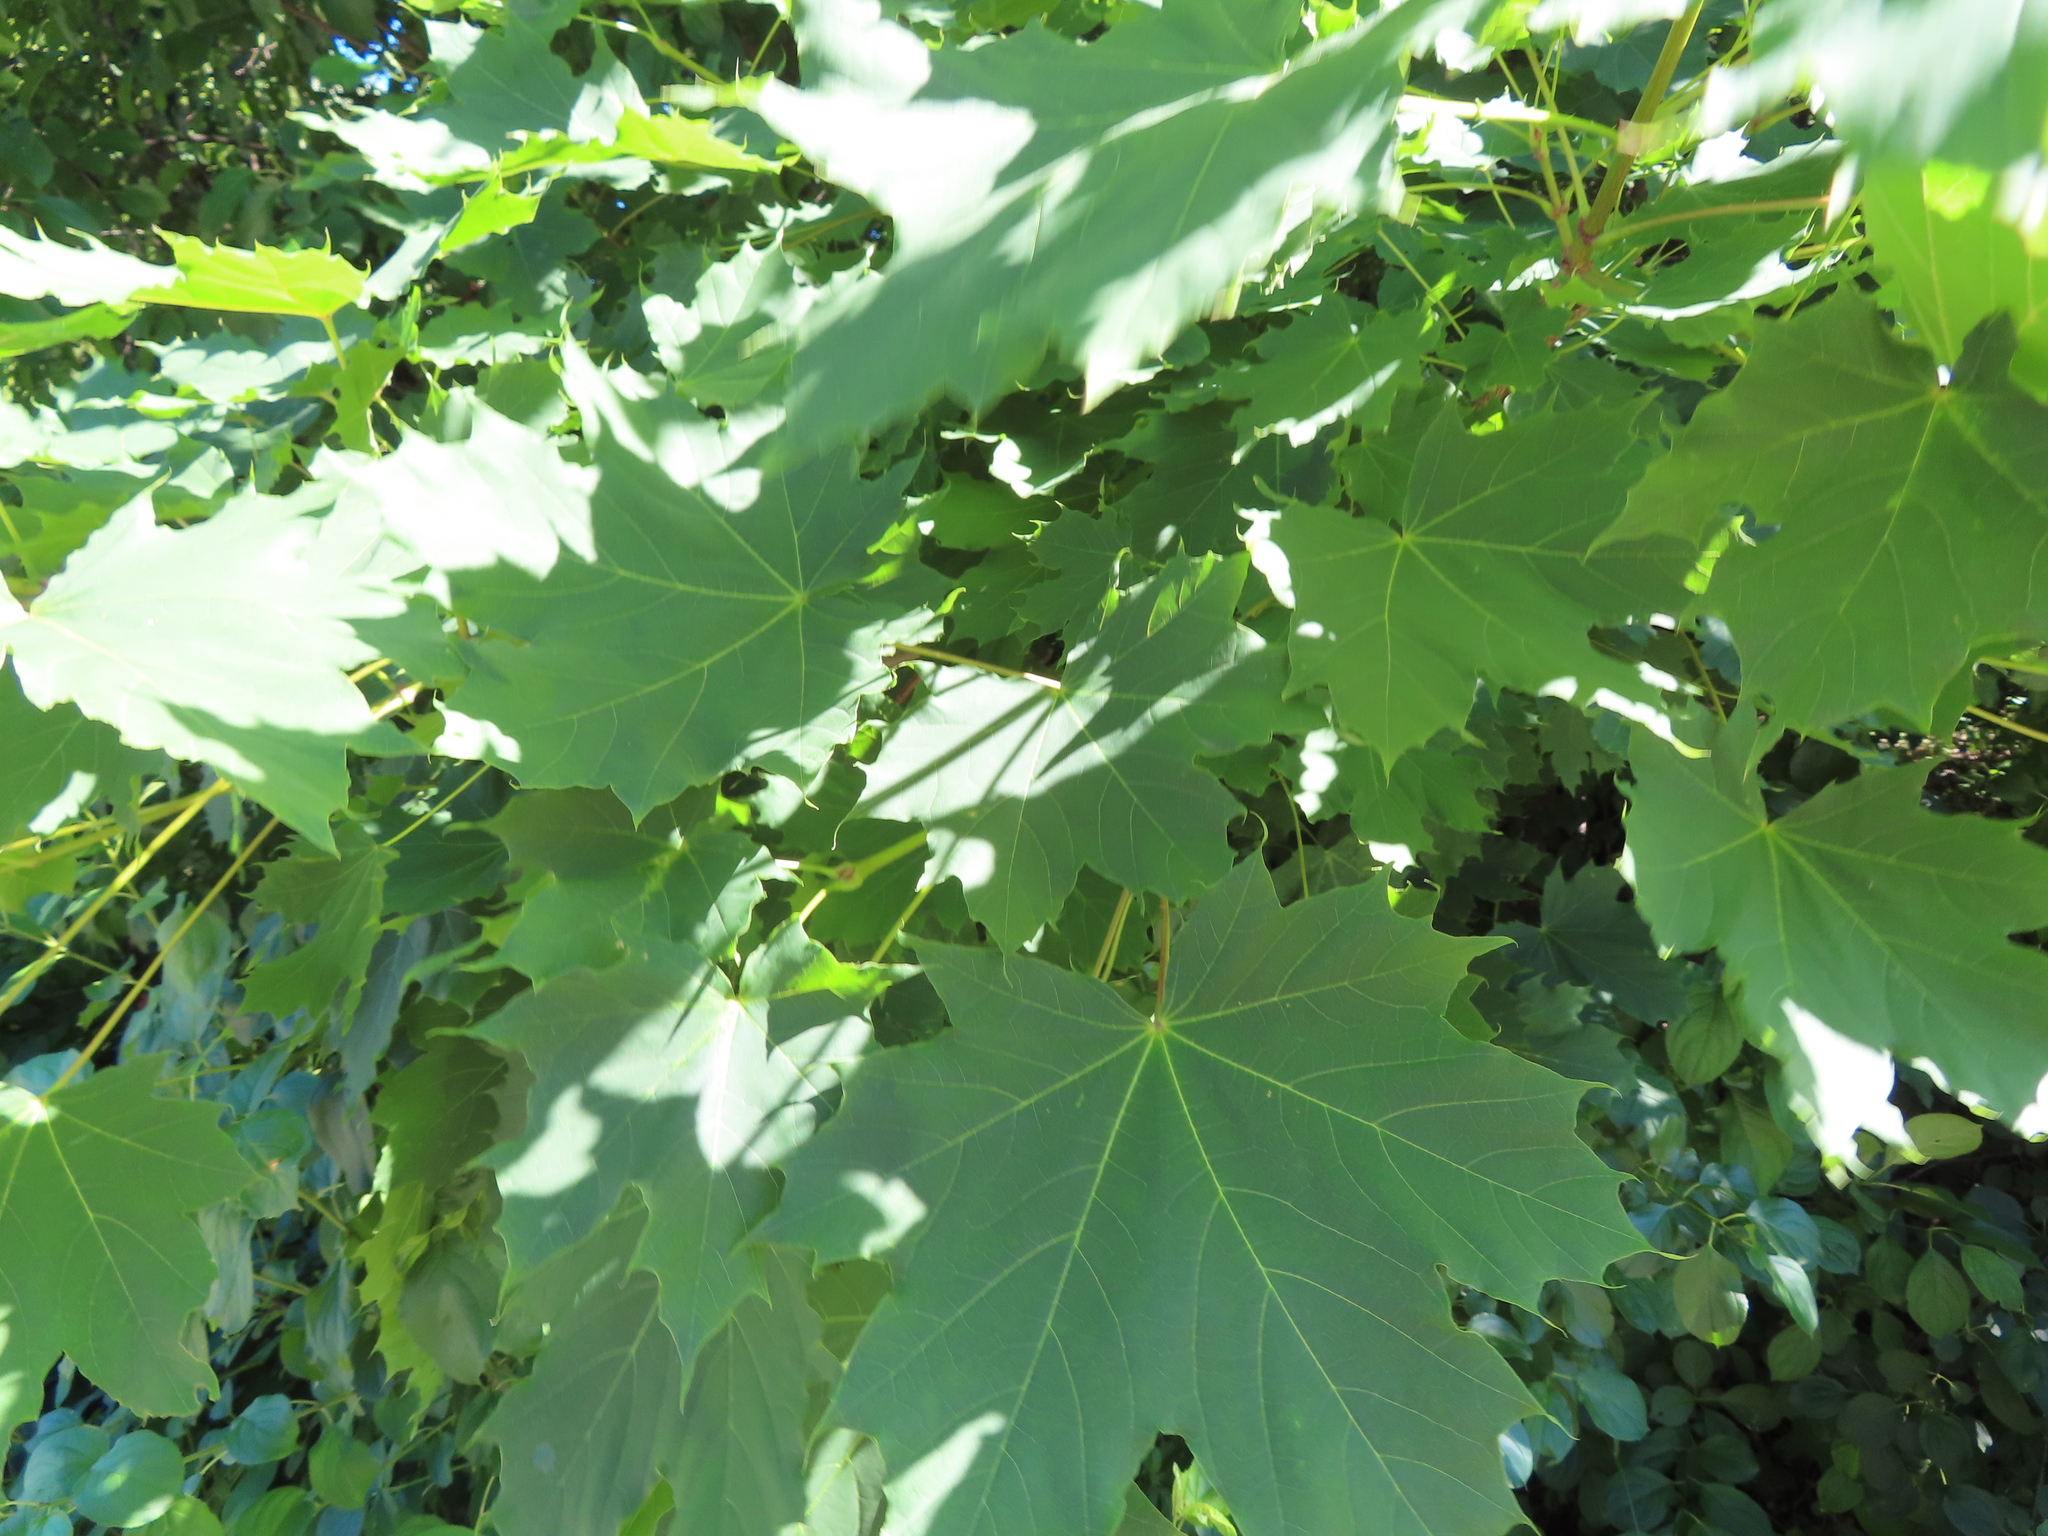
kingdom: Plantae
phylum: Tracheophyta
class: Magnoliopsida
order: Sapindales
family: Sapindaceae
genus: Acer
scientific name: Acer platanoides
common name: Norway maple
